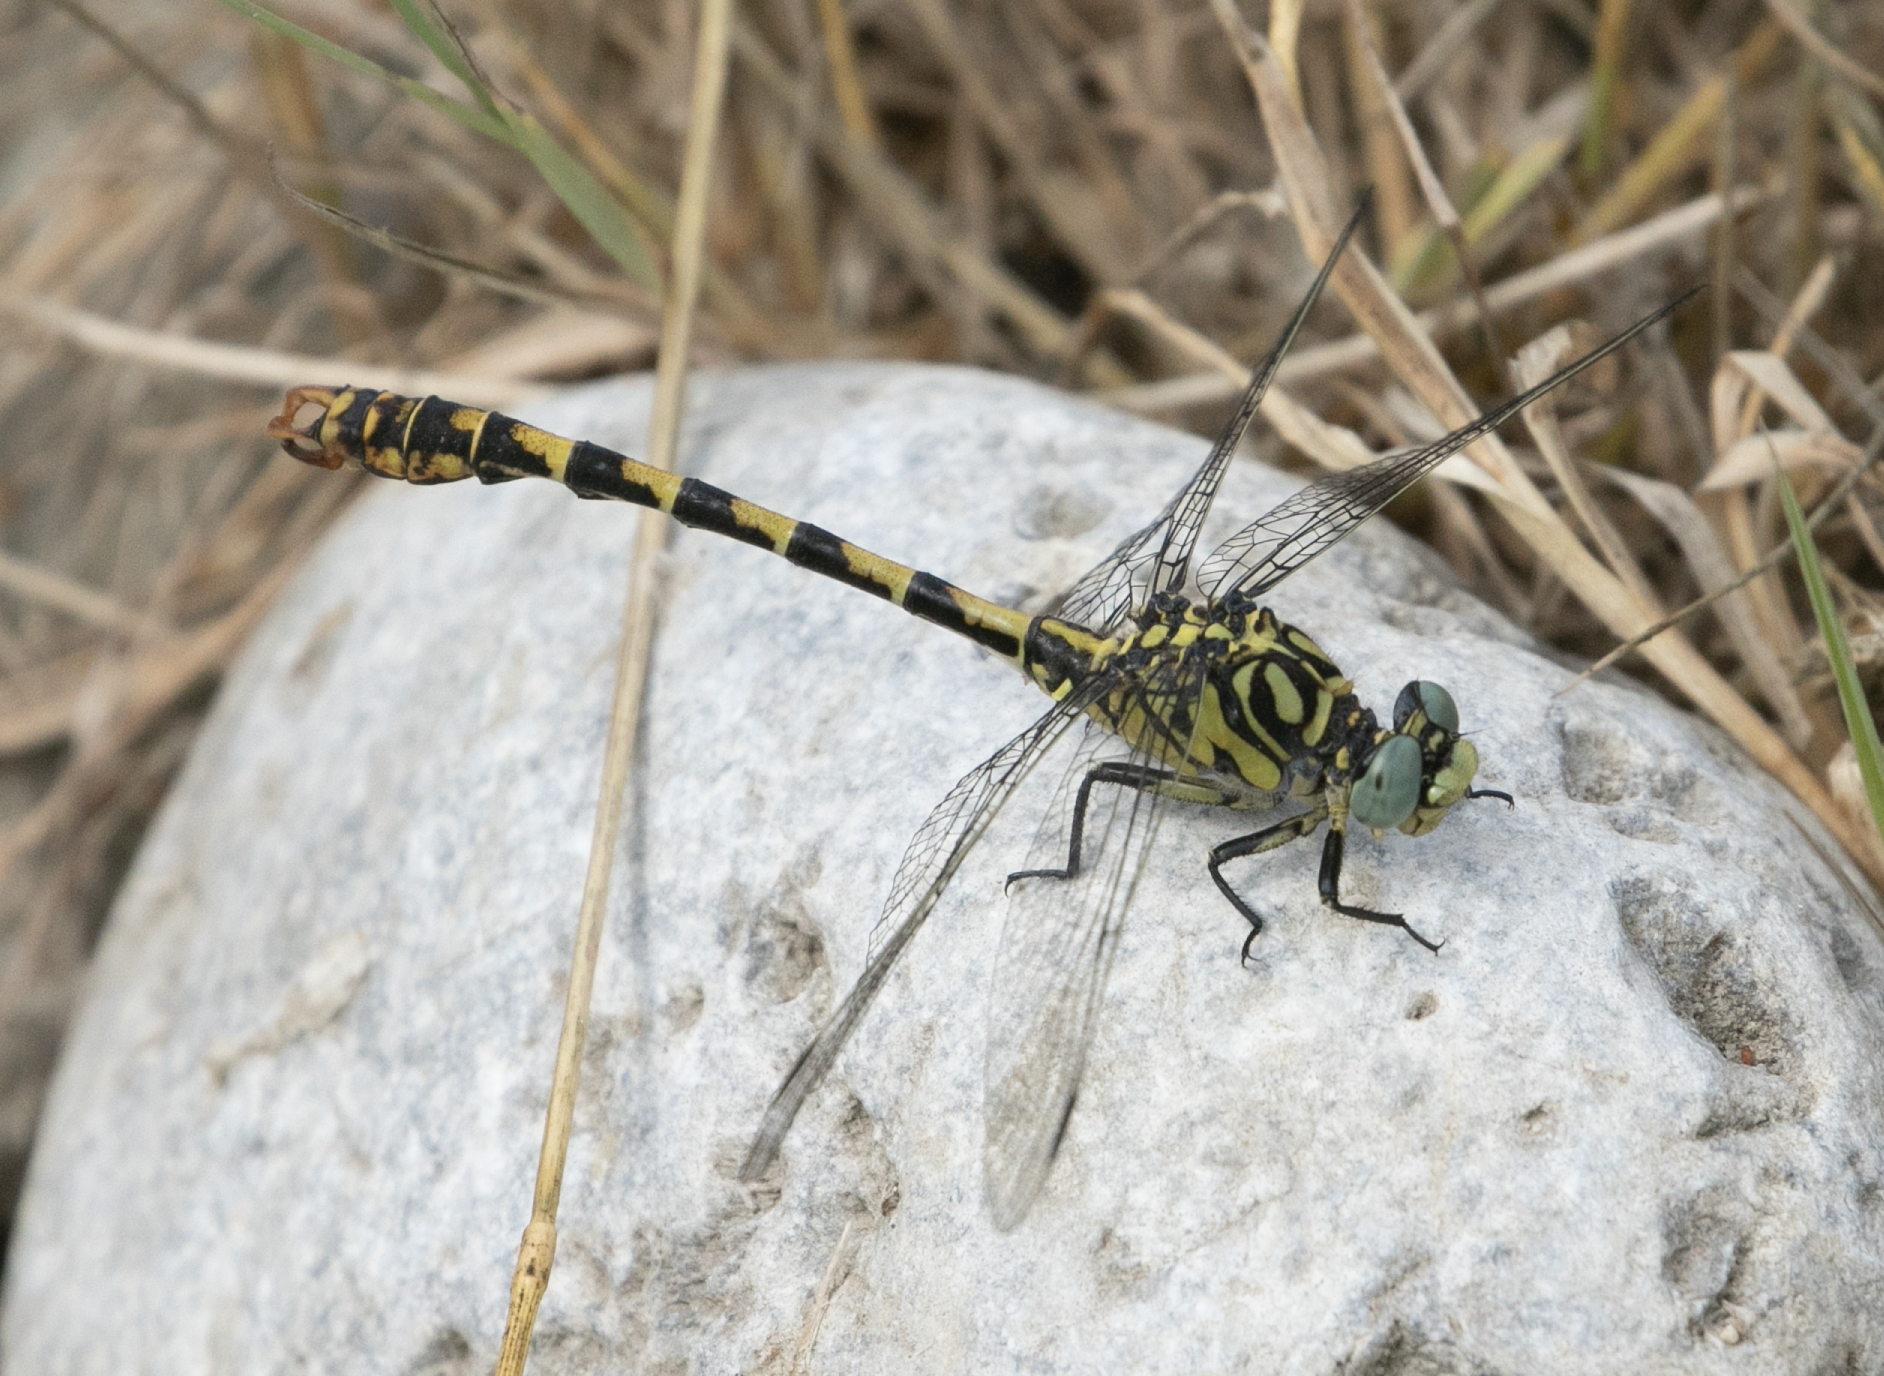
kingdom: Animalia
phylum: Arthropoda
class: Insecta
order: Odonata
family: Gomphidae
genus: Onychogomphus
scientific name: Onychogomphus forcipatus
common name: Small pincertail
